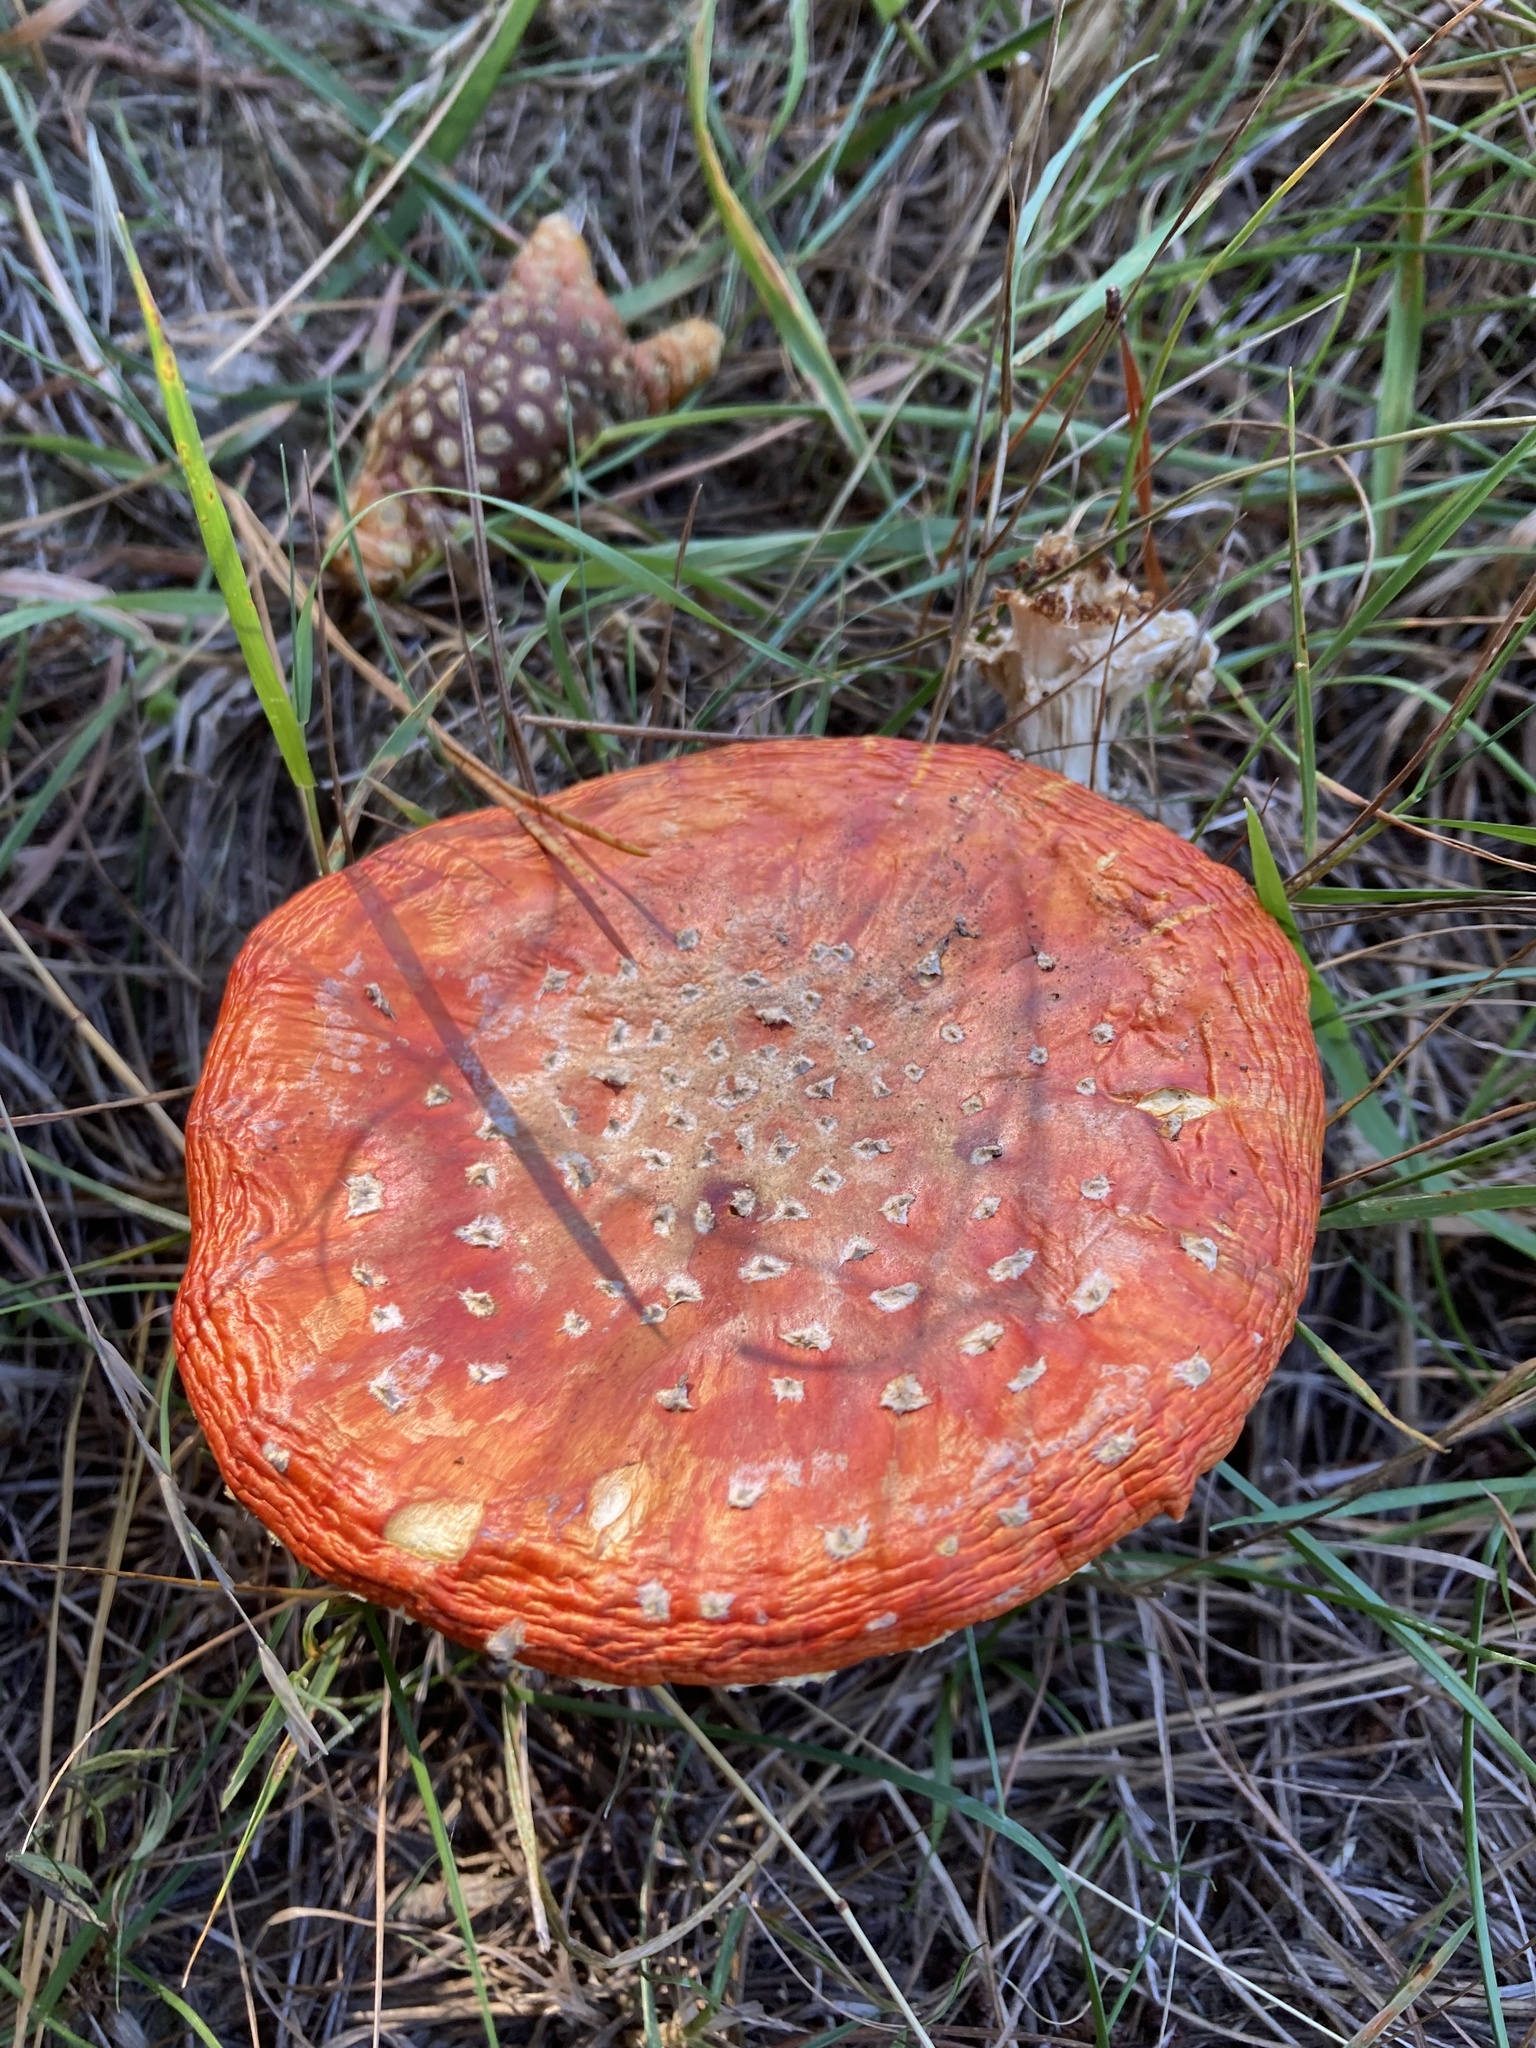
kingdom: Fungi
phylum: Basidiomycota
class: Agaricomycetes
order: Agaricales
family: Amanitaceae
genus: Amanita
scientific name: Amanita muscaria
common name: Fly agaric
